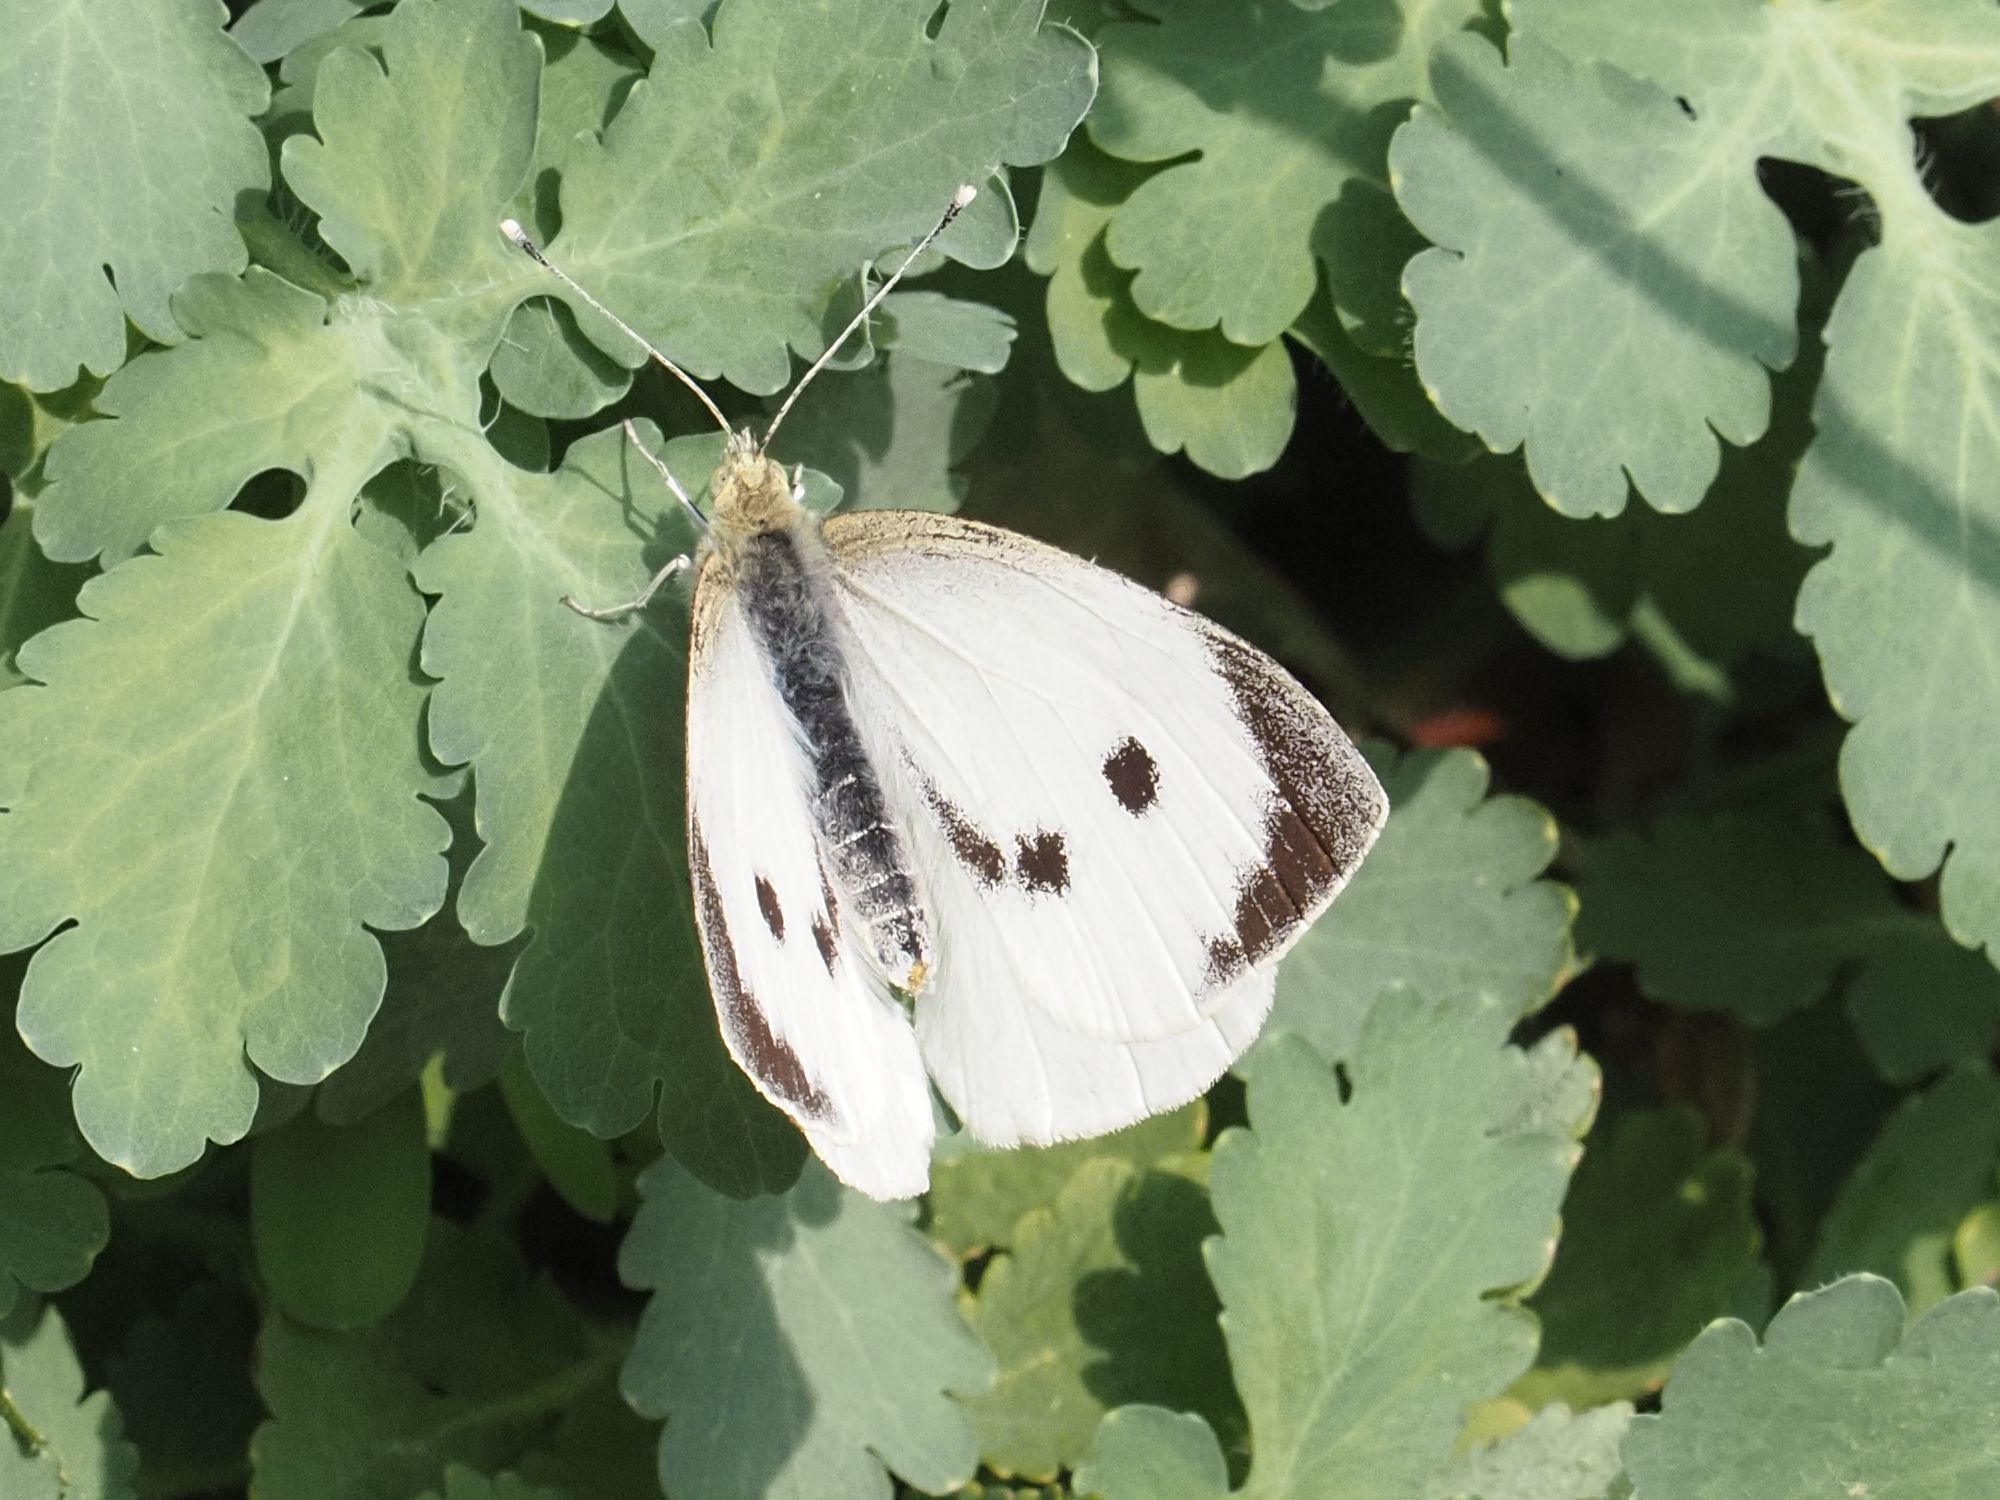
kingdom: Animalia
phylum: Arthropoda
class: Insecta
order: Lepidoptera
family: Pieridae
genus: Pieris
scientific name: Pieris brassicae
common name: Large white
